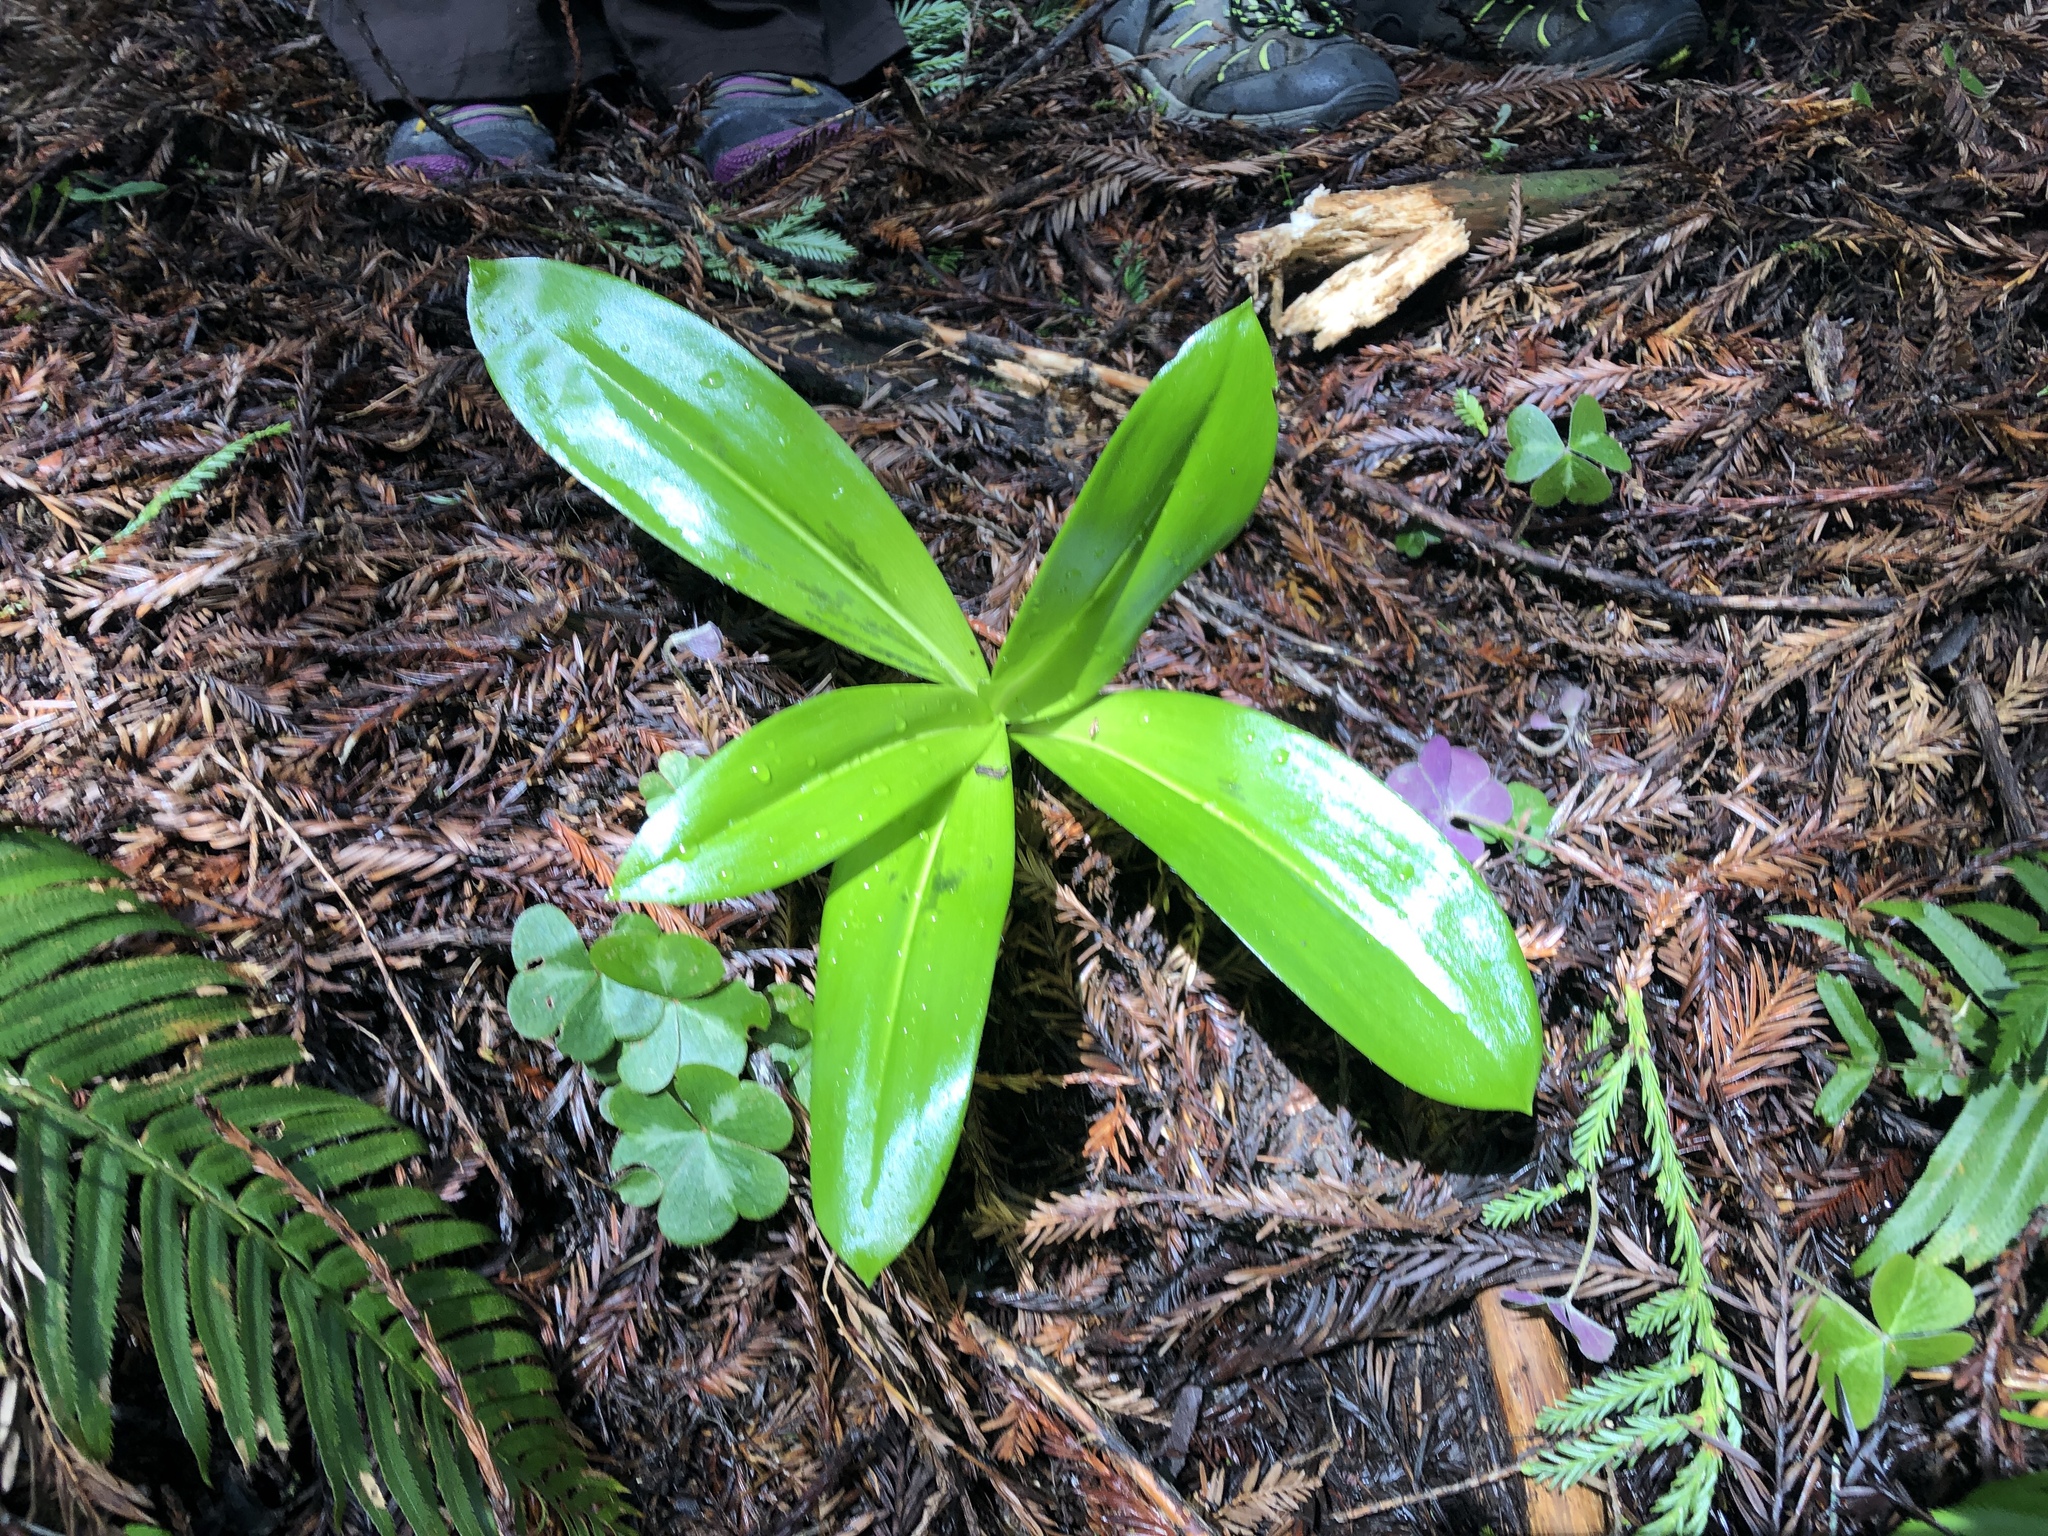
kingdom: Plantae
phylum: Tracheophyta
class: Liliopsida
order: Liliales
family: Liliaceae
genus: Clintonia
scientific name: Clintonia andrewsiana
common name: Red clintonia
